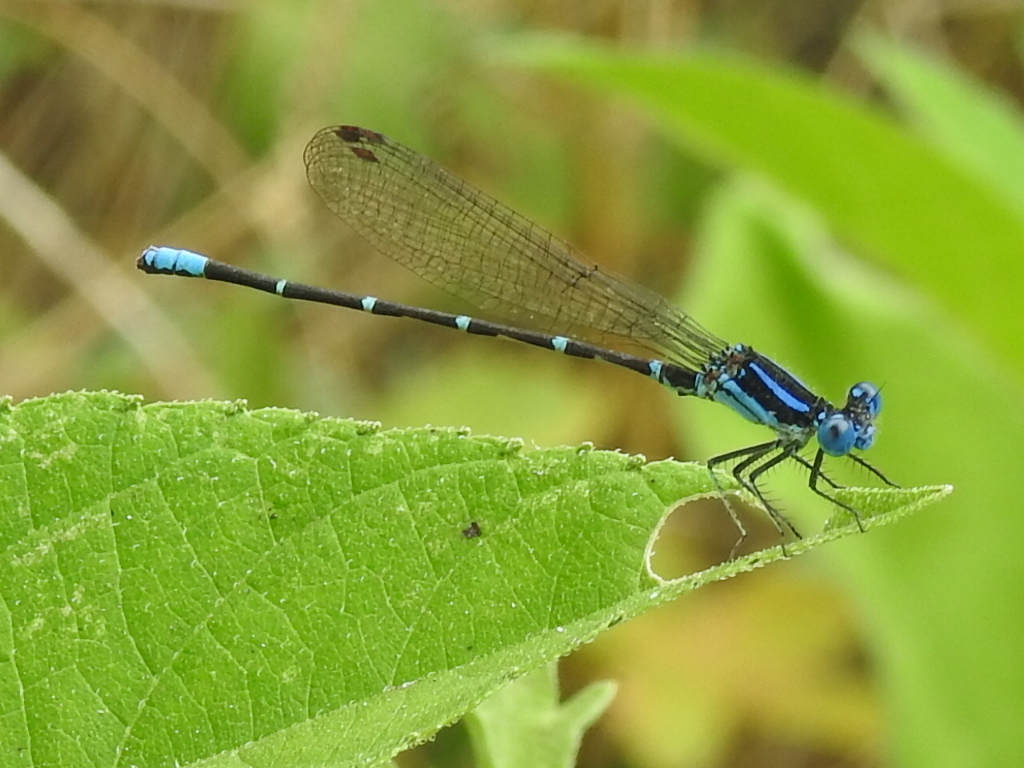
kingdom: Animalia
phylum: Arthropoda
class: Insecta
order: Odonata
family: Coenagrionidae
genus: Argia
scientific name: Argia sedula
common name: Blue-ringed dancer
